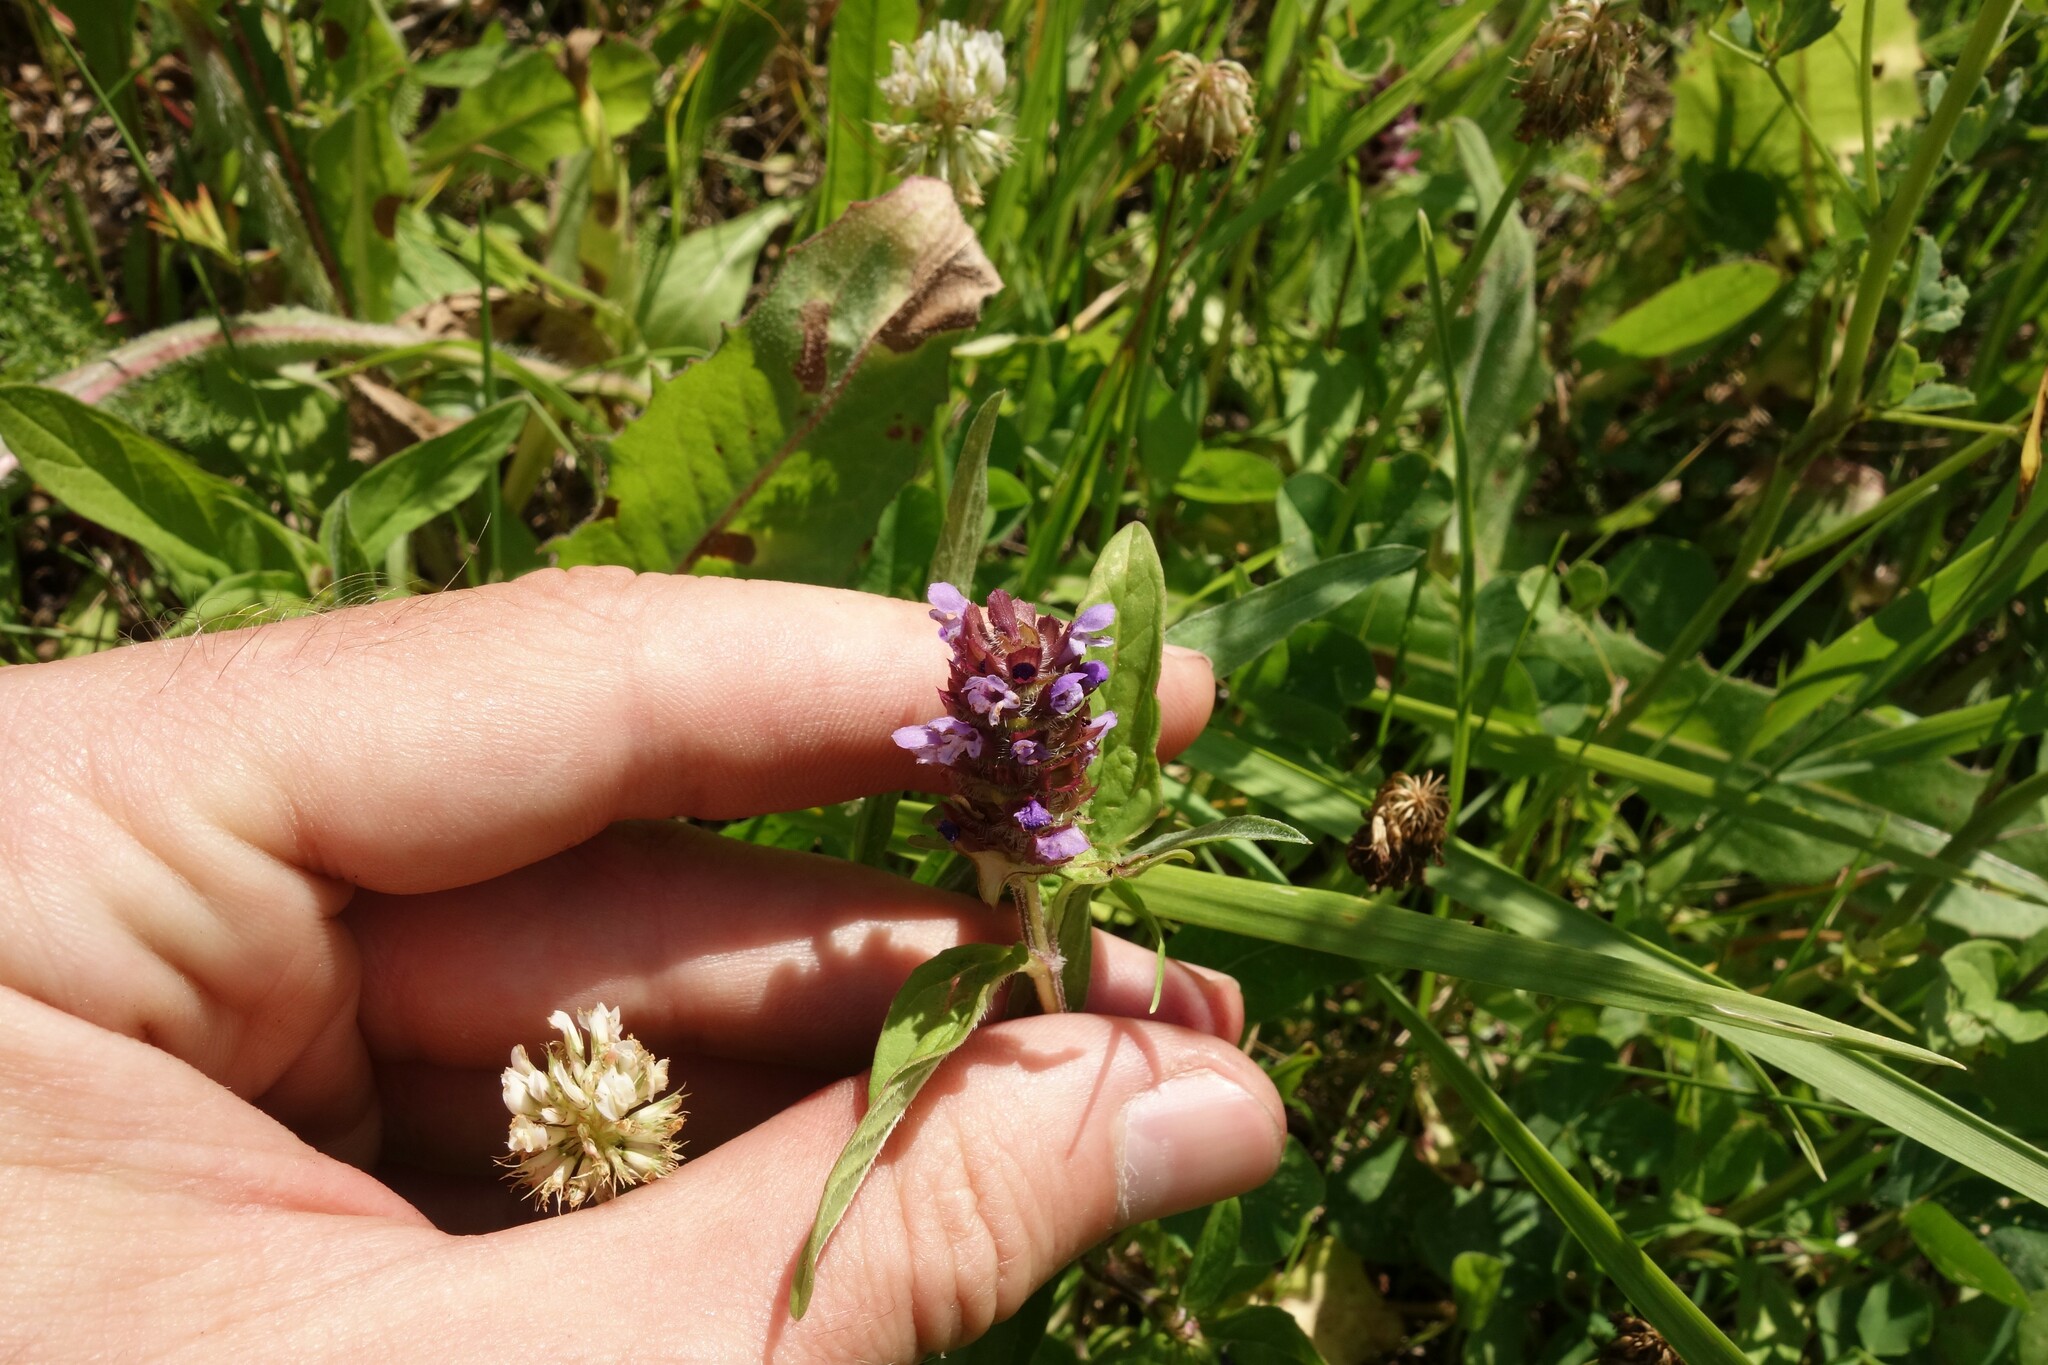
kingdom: Plantae
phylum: Tracheophyta
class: Magnoliopsida
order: Lamiales
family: Lamiaceae
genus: Prunella
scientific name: Prunella vulgaris
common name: Heal-all
